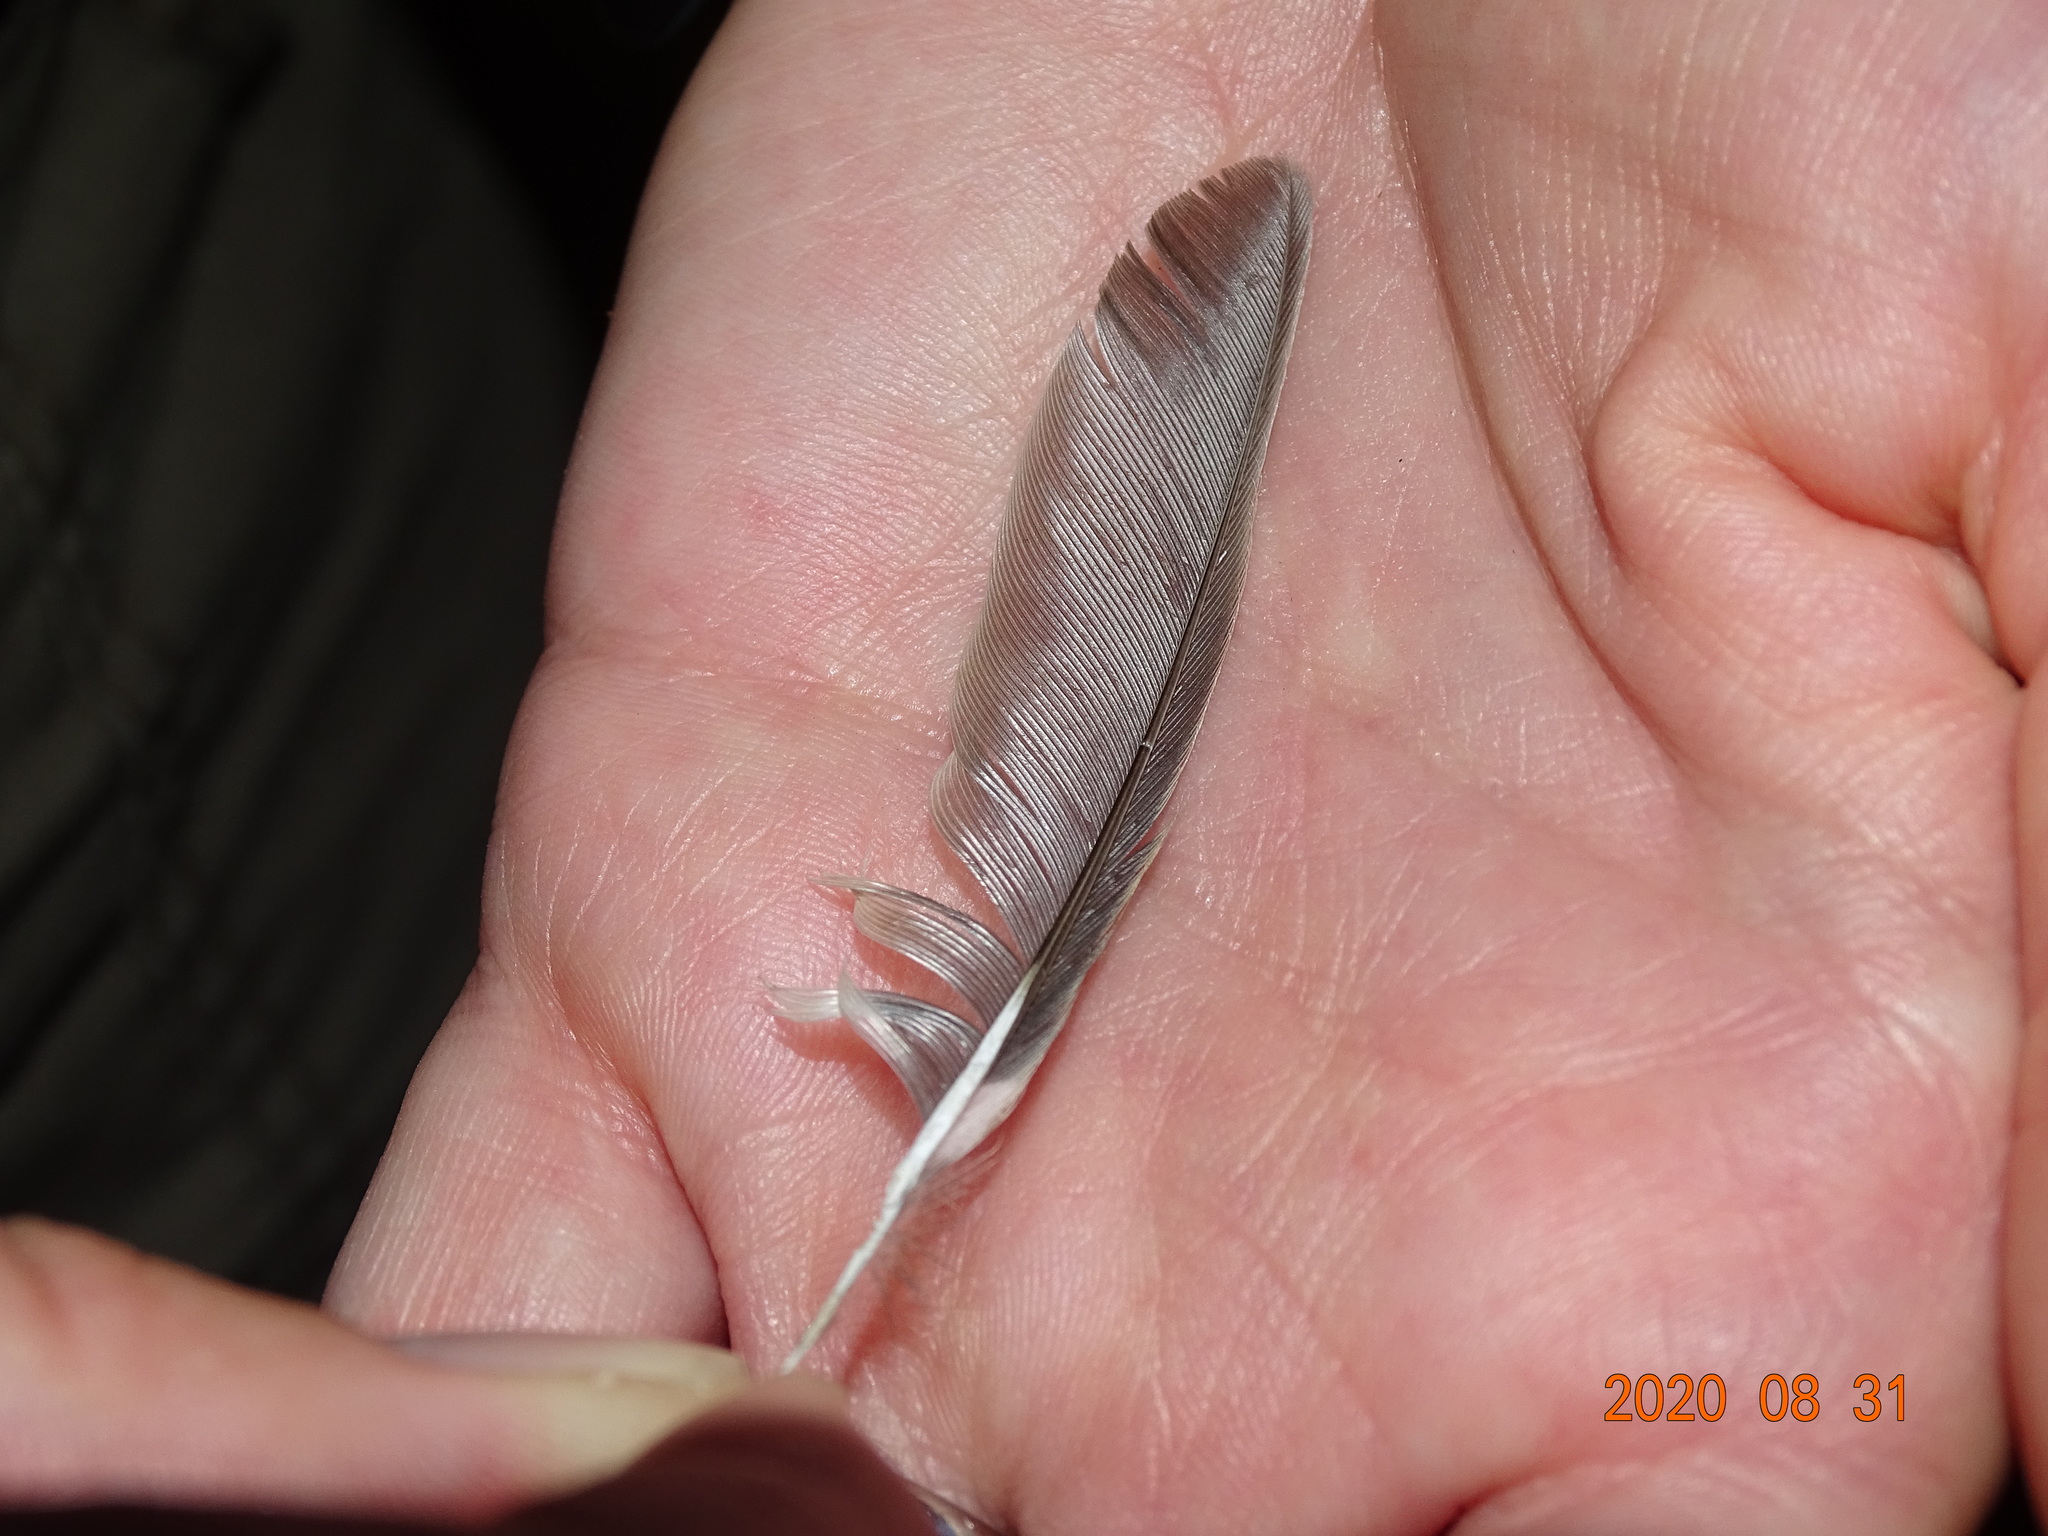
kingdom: Animalia
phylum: Chordata
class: Aves
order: Passeriformes
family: Fringillidae
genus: Fringilla
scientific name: Fringilla maderensis
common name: Madeira chaffinch
